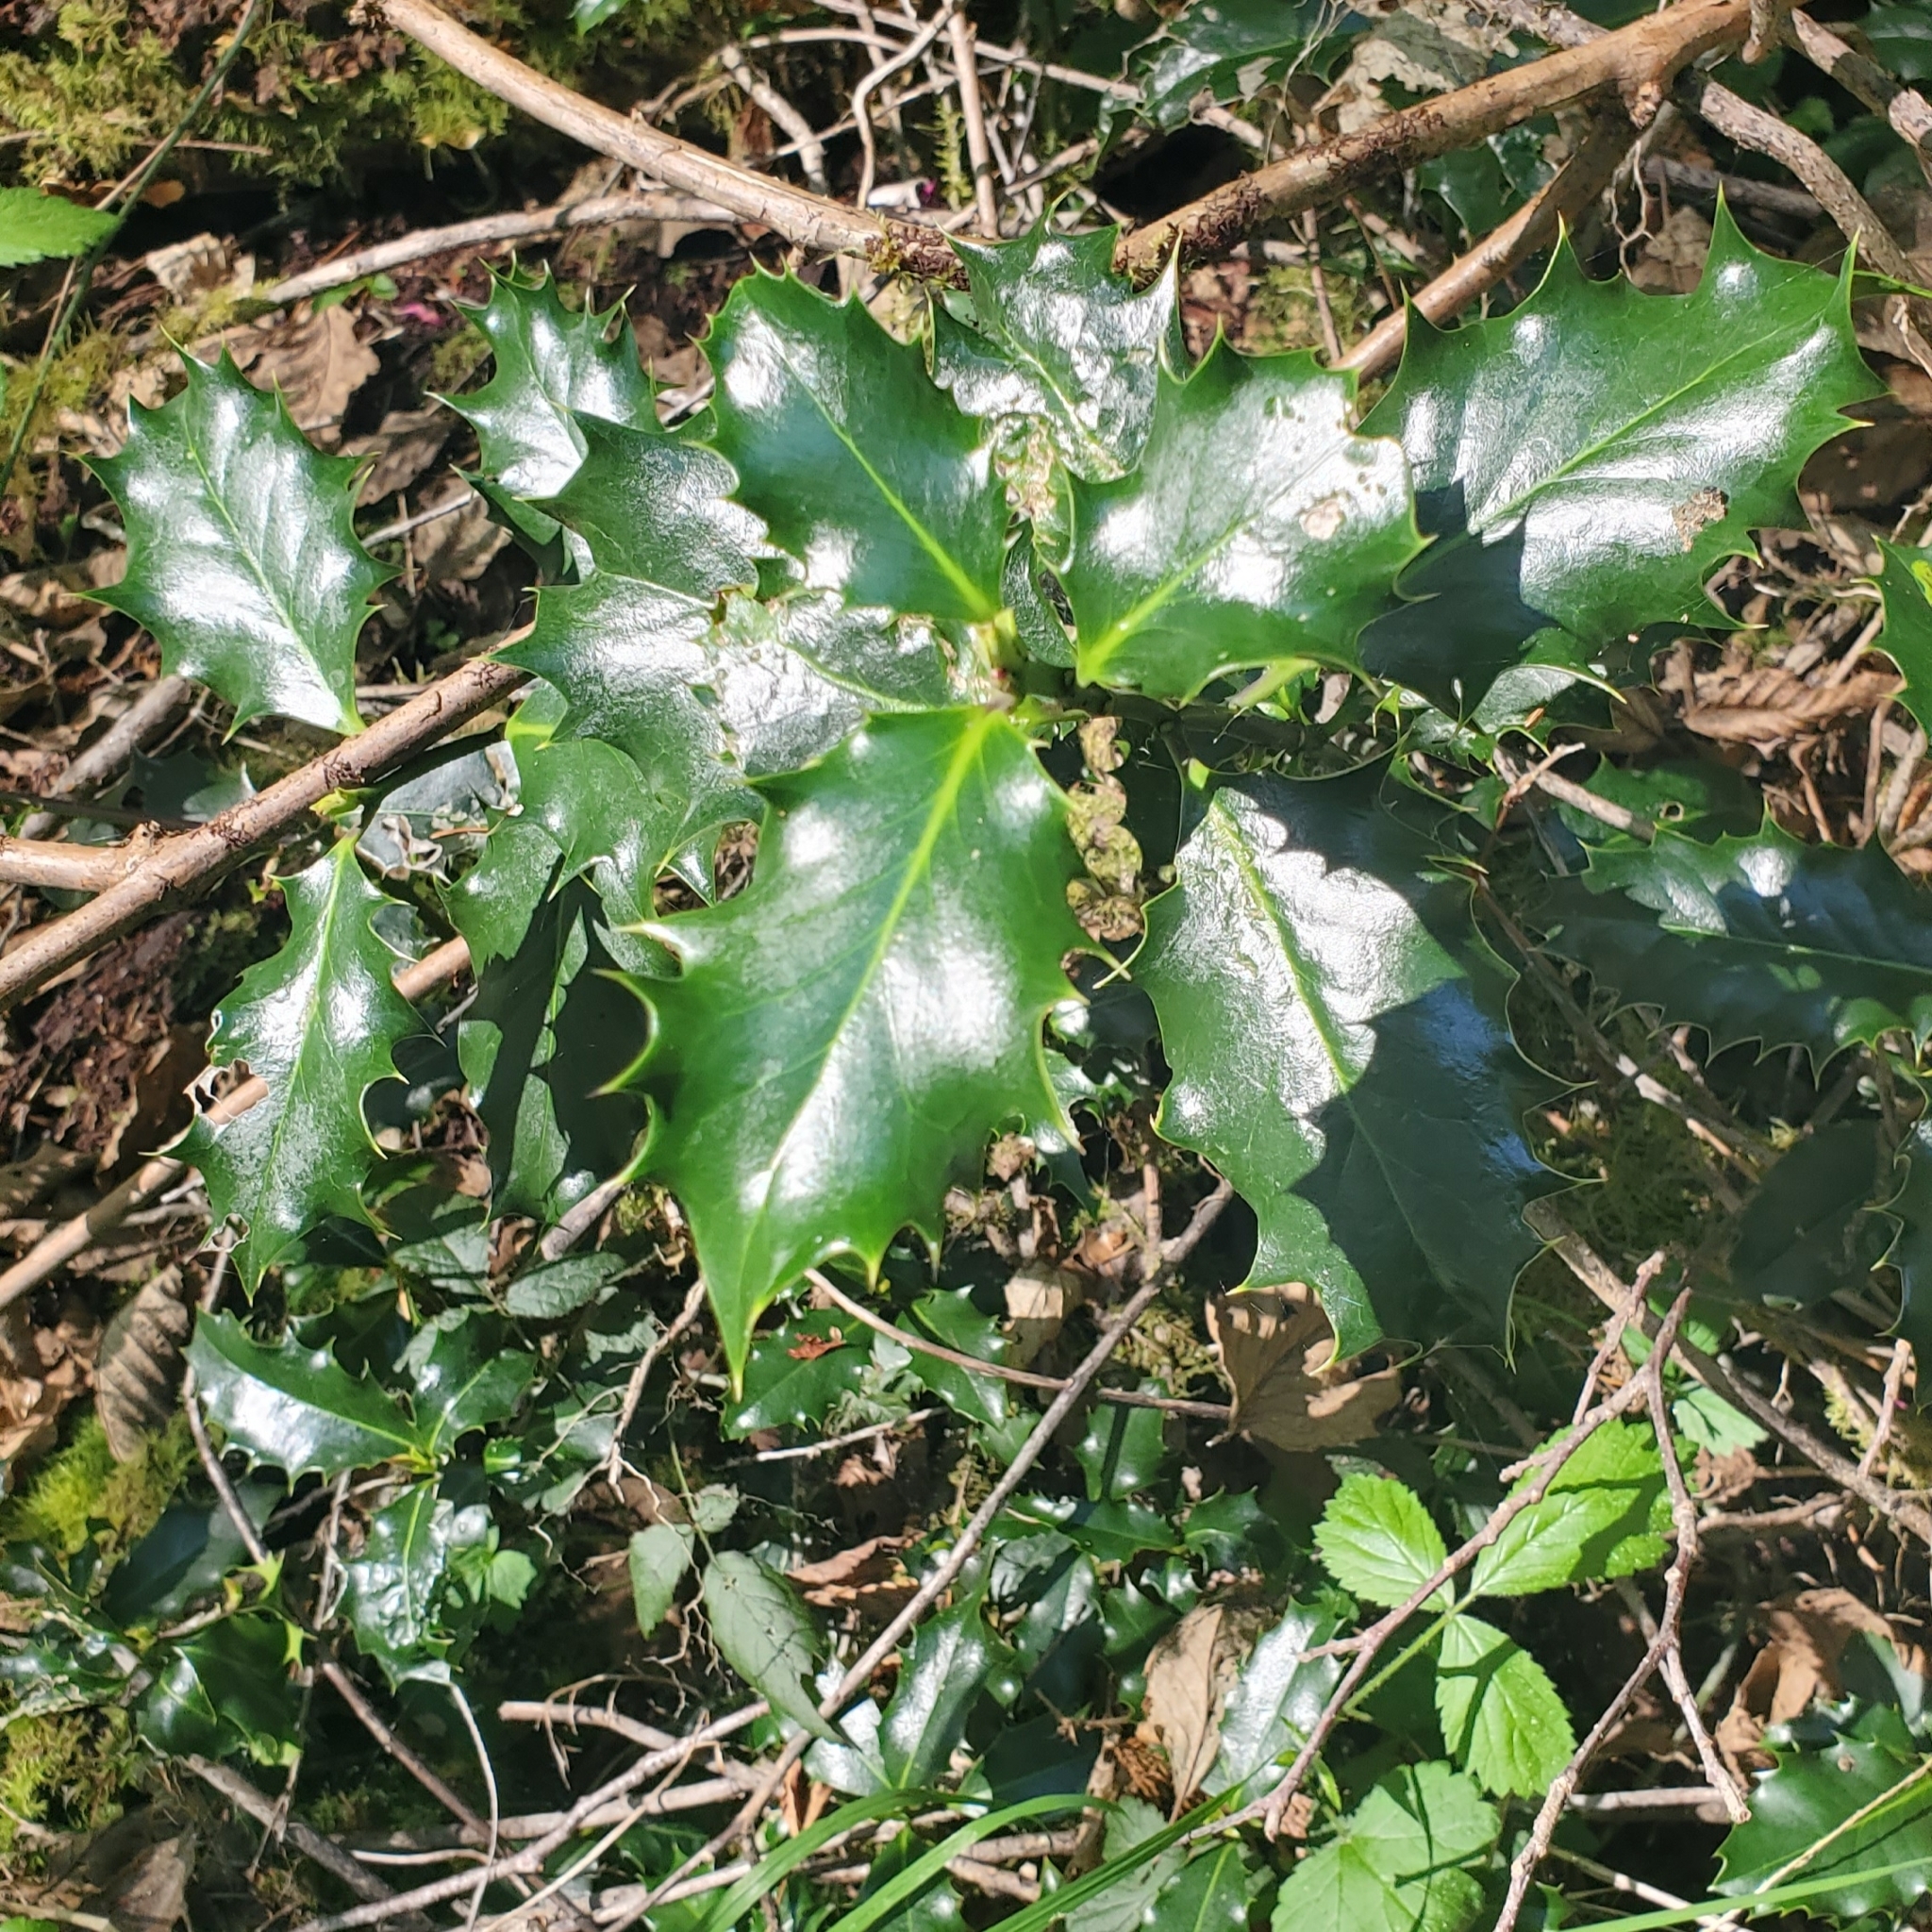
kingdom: Plantae
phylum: Tracheophyta
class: Magnoliopsida
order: Aquifoliales
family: Aquifoliaceae
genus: Ilex
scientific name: Ilex aquifolium
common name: English holly
